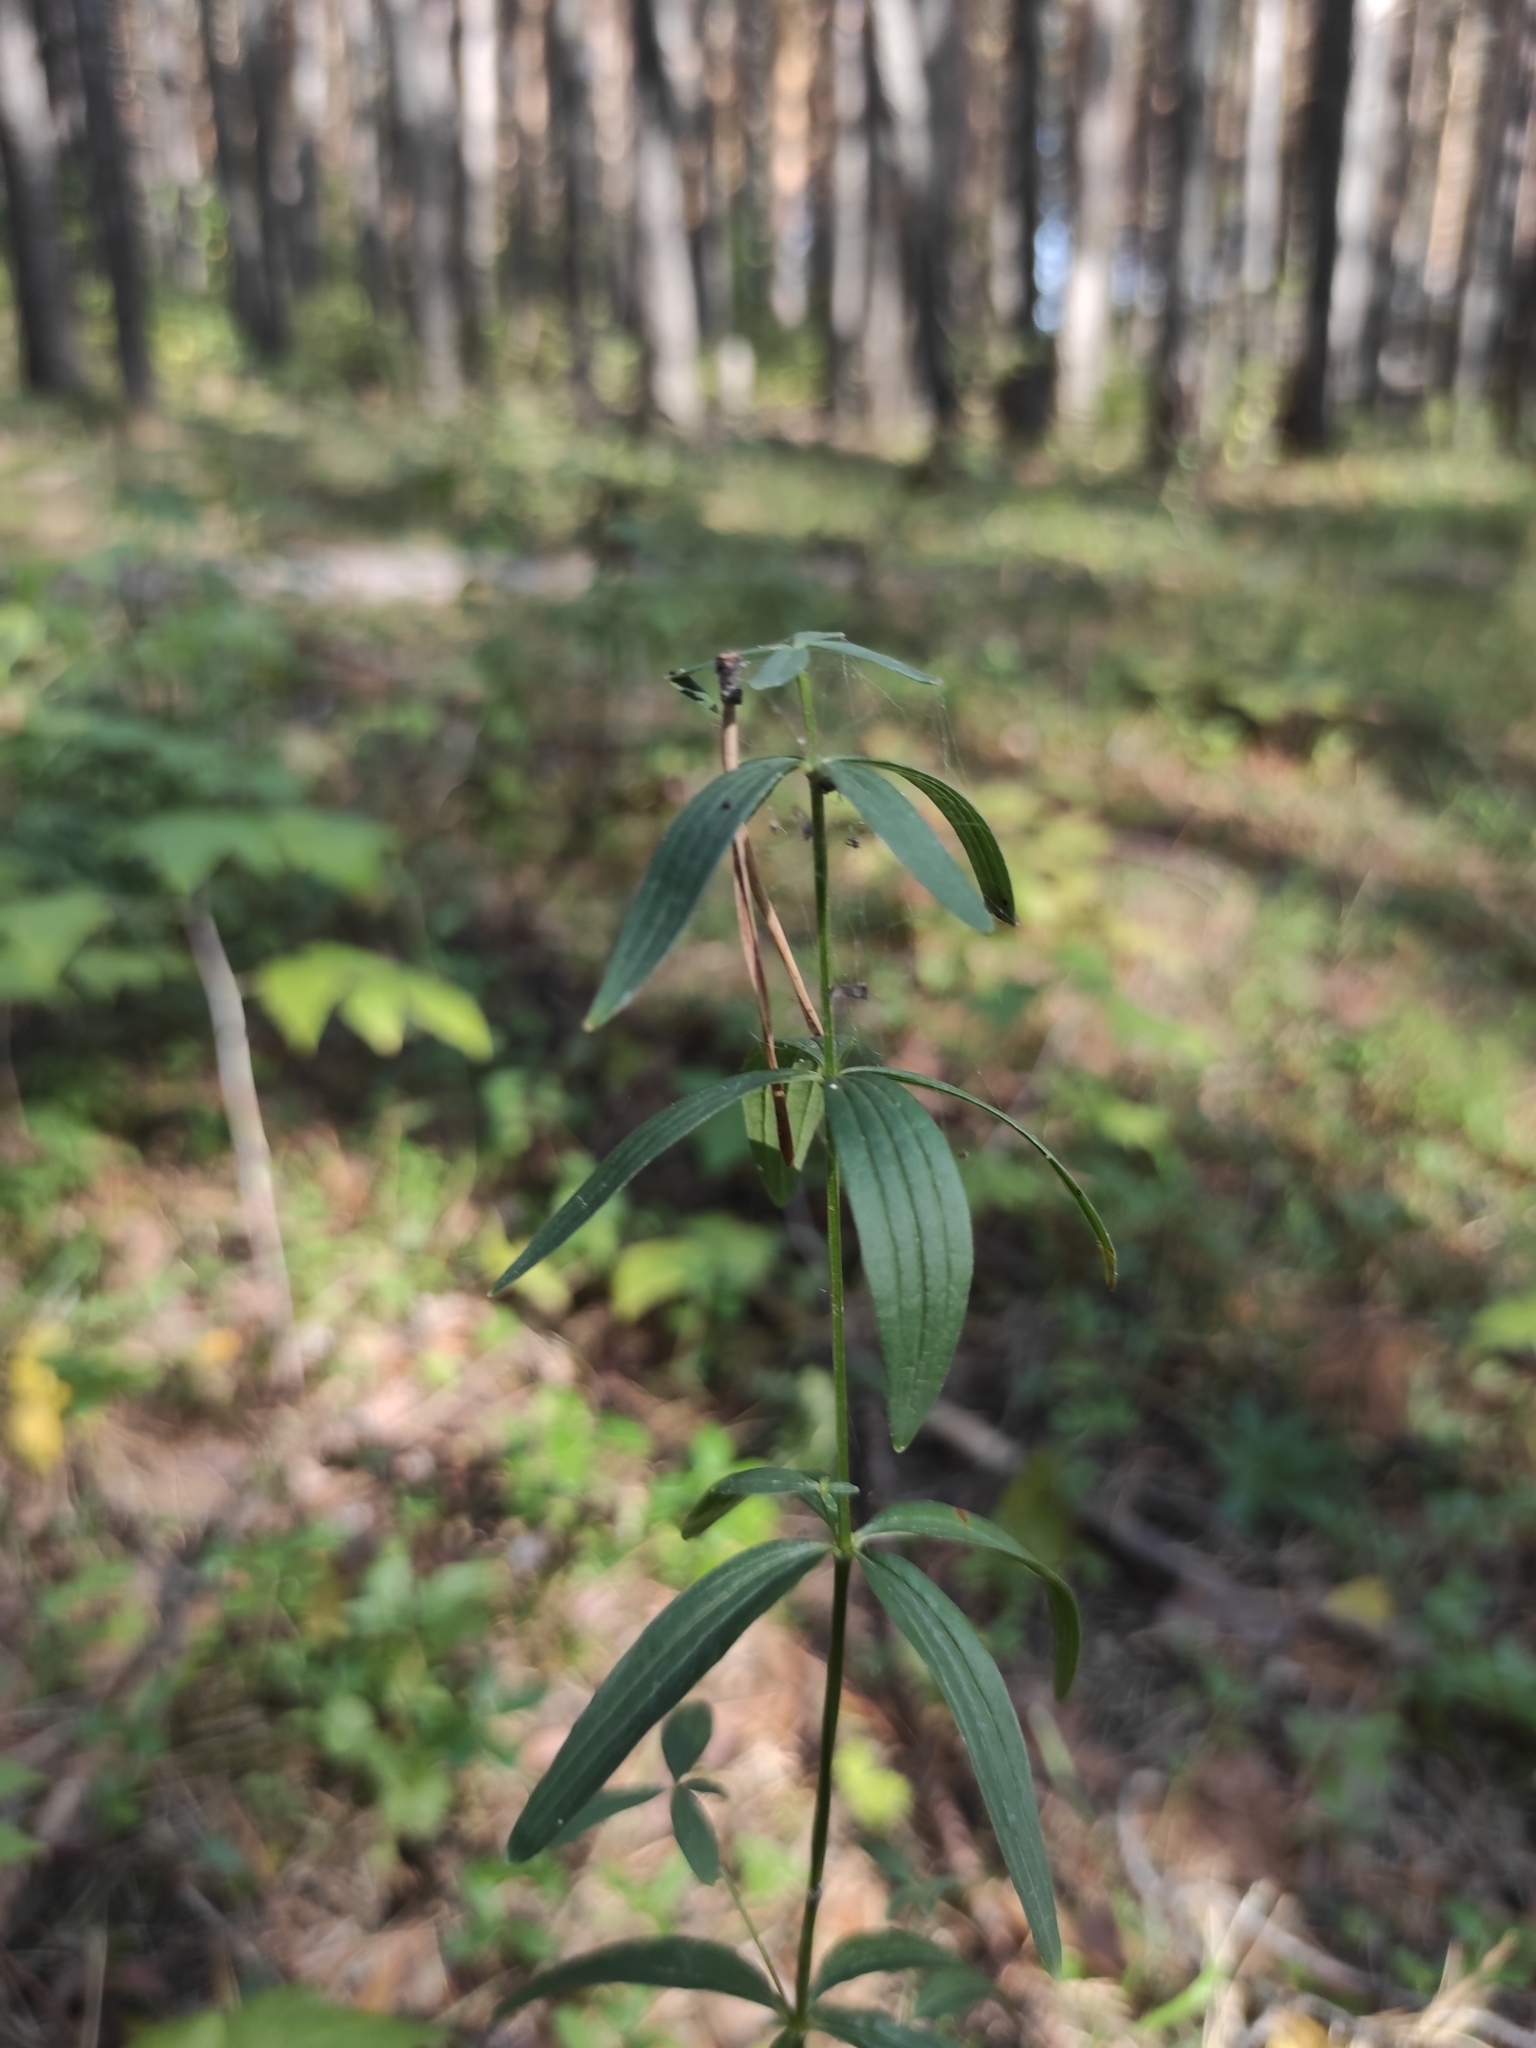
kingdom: Plantae
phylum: Tracheophyta
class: Magnoliopsida
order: Gentianales
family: Rubiaceae
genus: Galium
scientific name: Galium boreale
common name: Northern bedstraw
